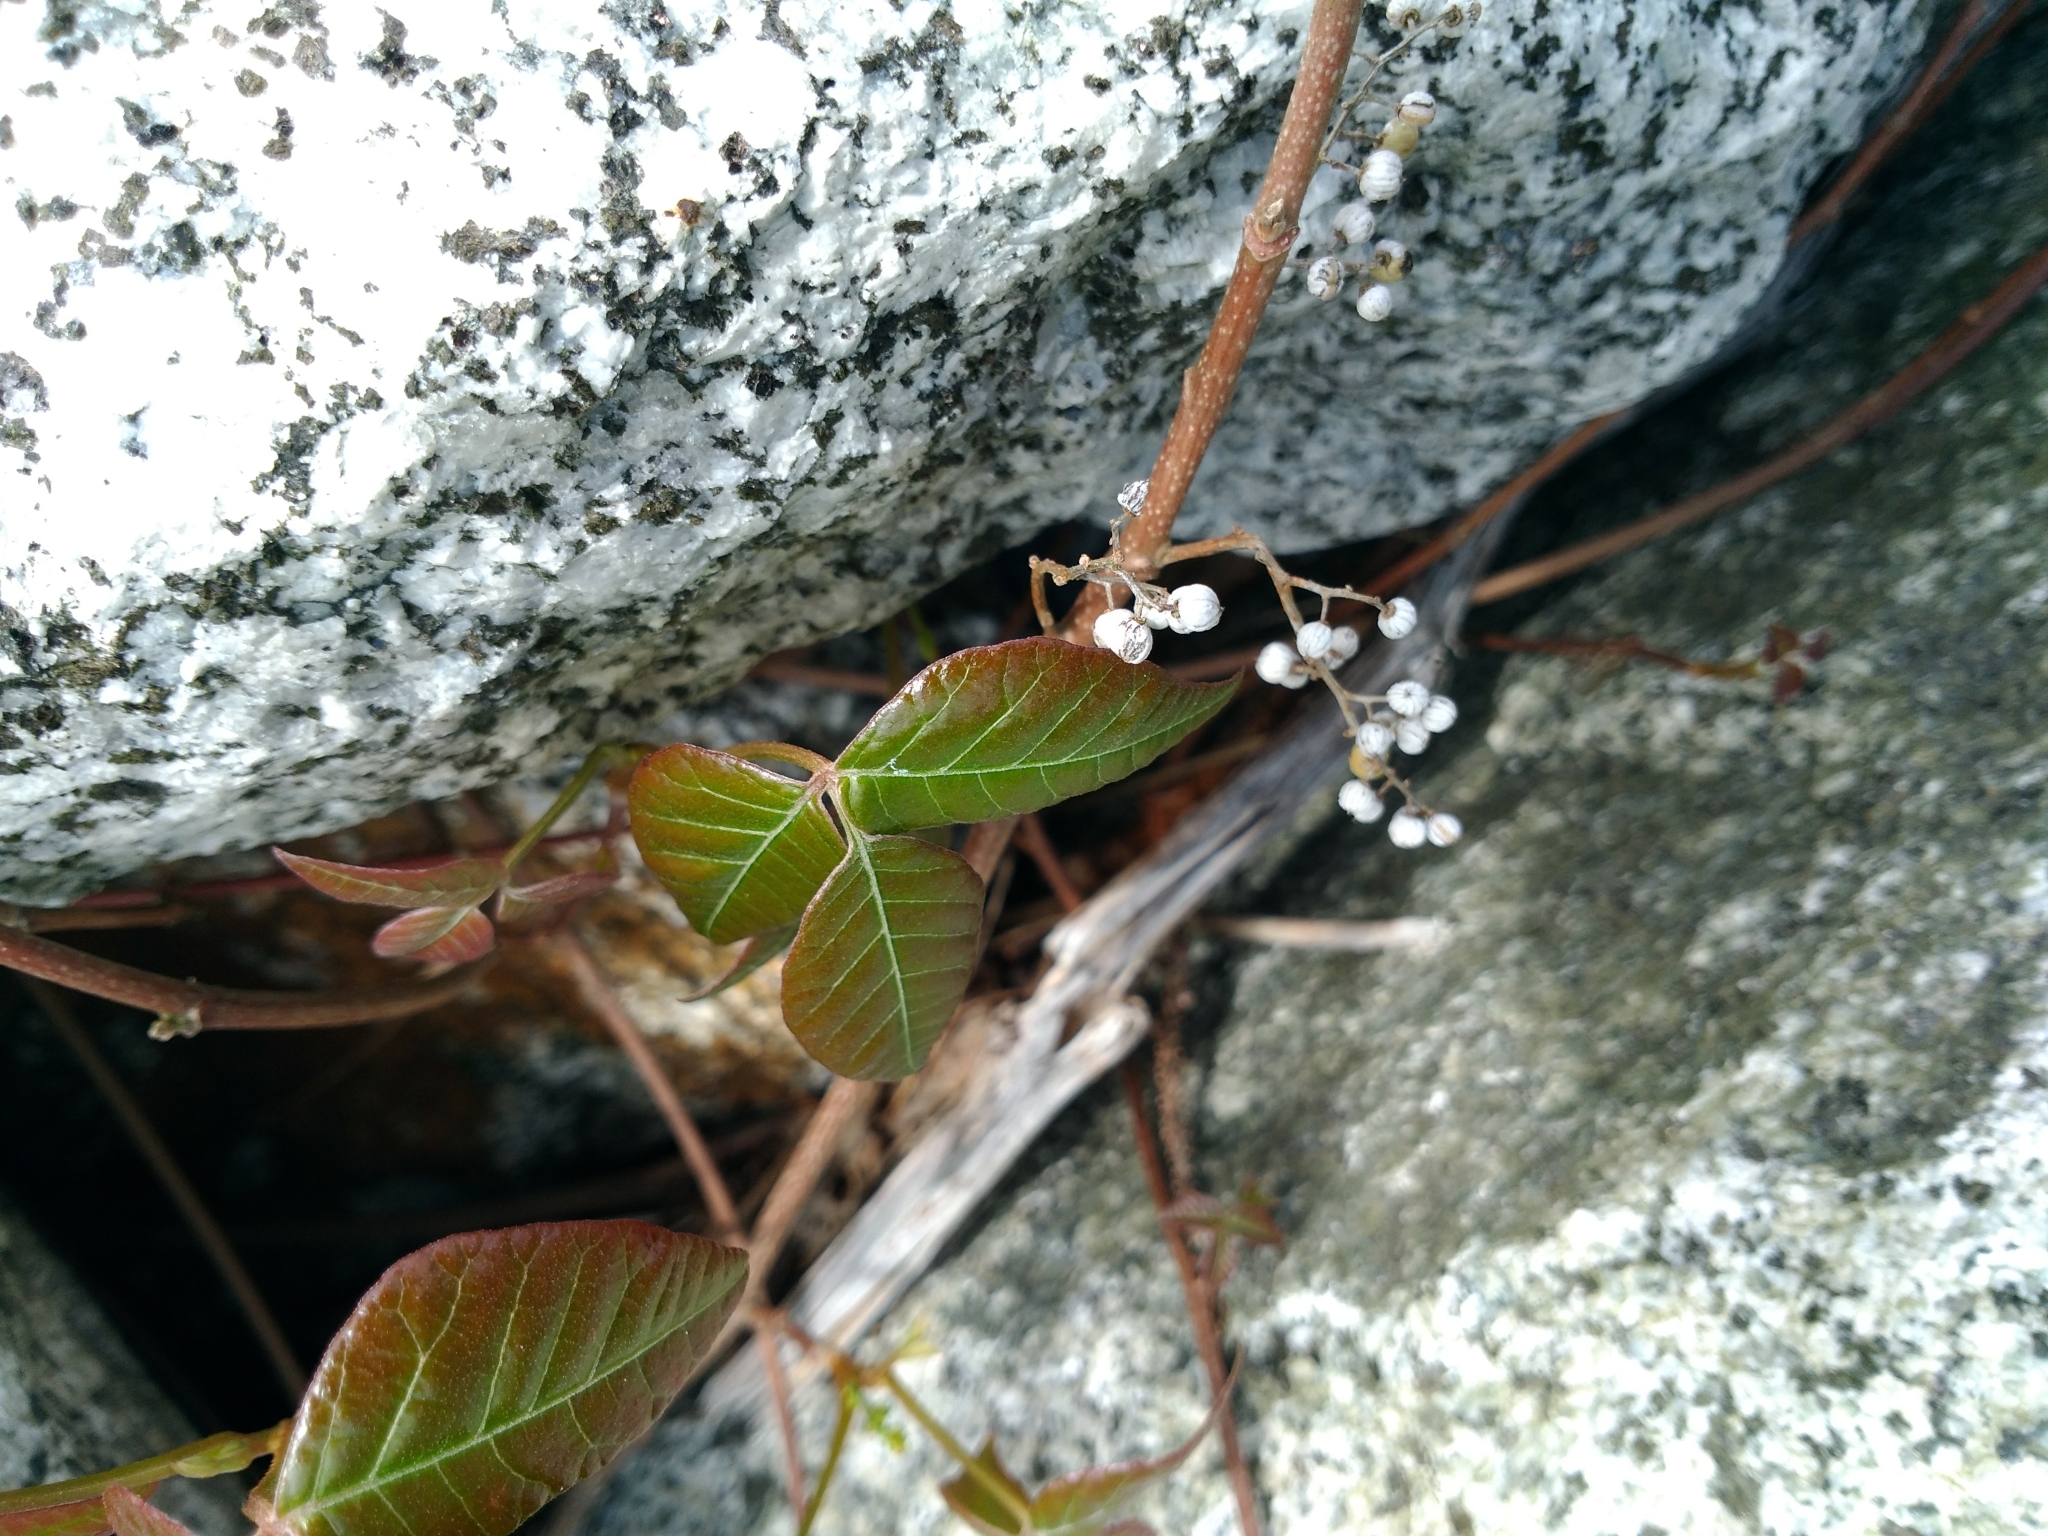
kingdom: Plantae
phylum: Tracheophyta
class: Magnoliopsida
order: Sapindales
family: Anacardiaceae
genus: Toxicodendron
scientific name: Toxicodendron radicans
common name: Poison ivy
